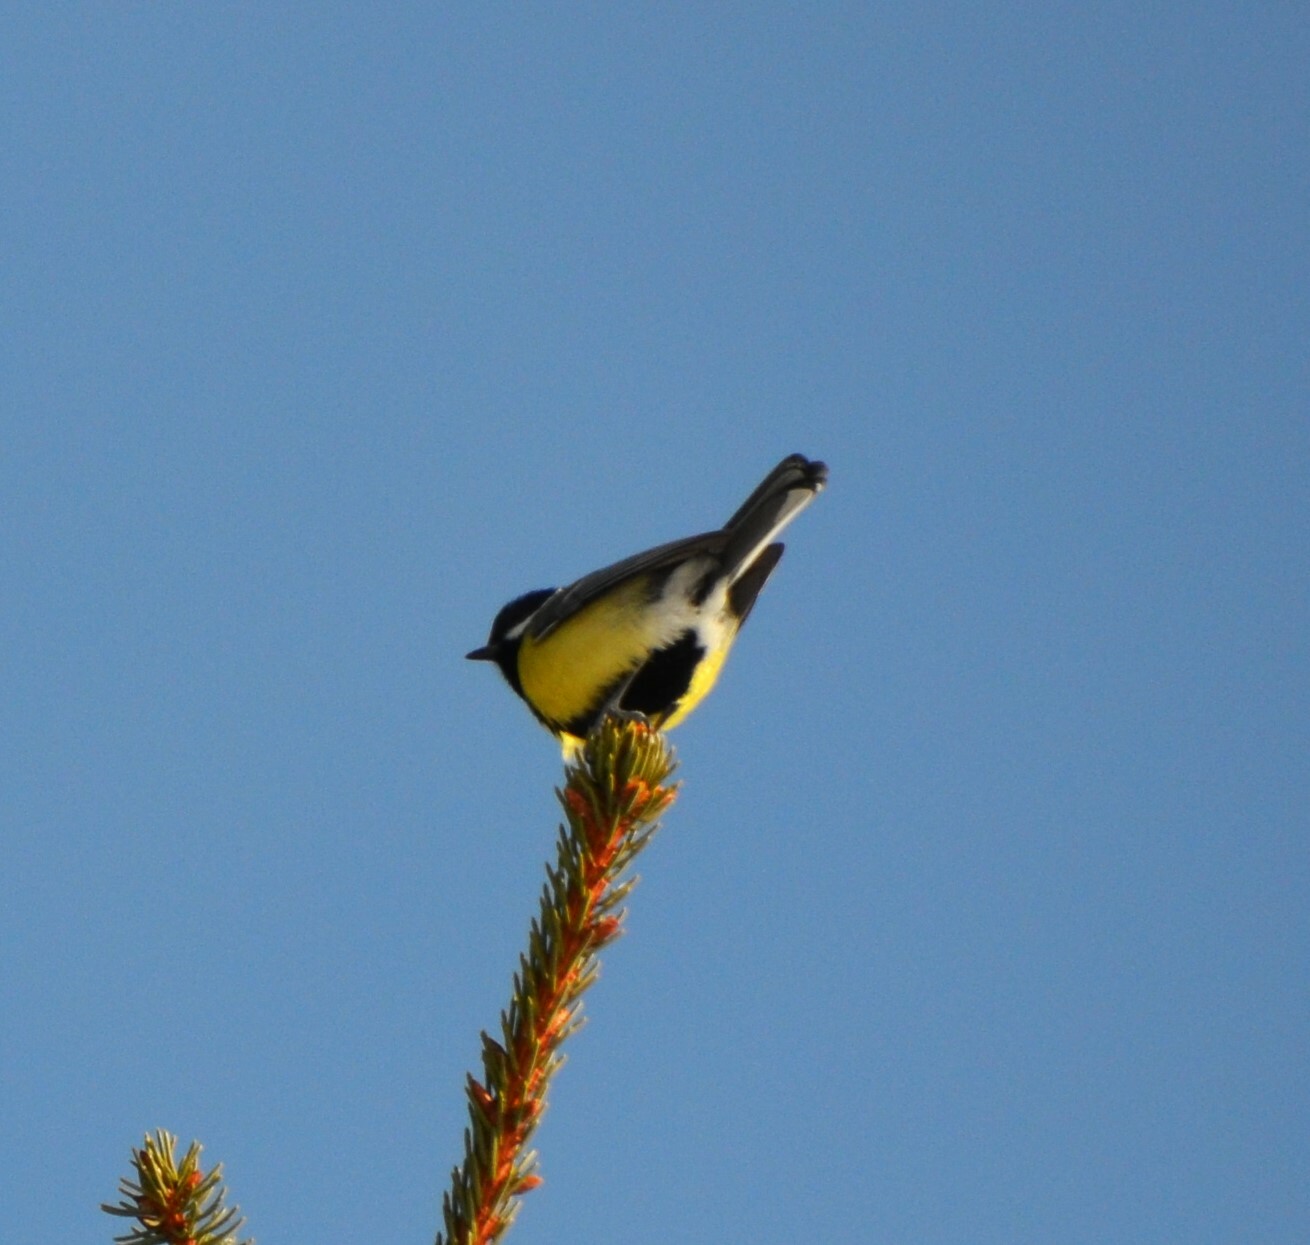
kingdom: Animalia
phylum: Chordata
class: Aves
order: Passeriformes
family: Paridae
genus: Parus
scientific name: Parus major
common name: Great tit
